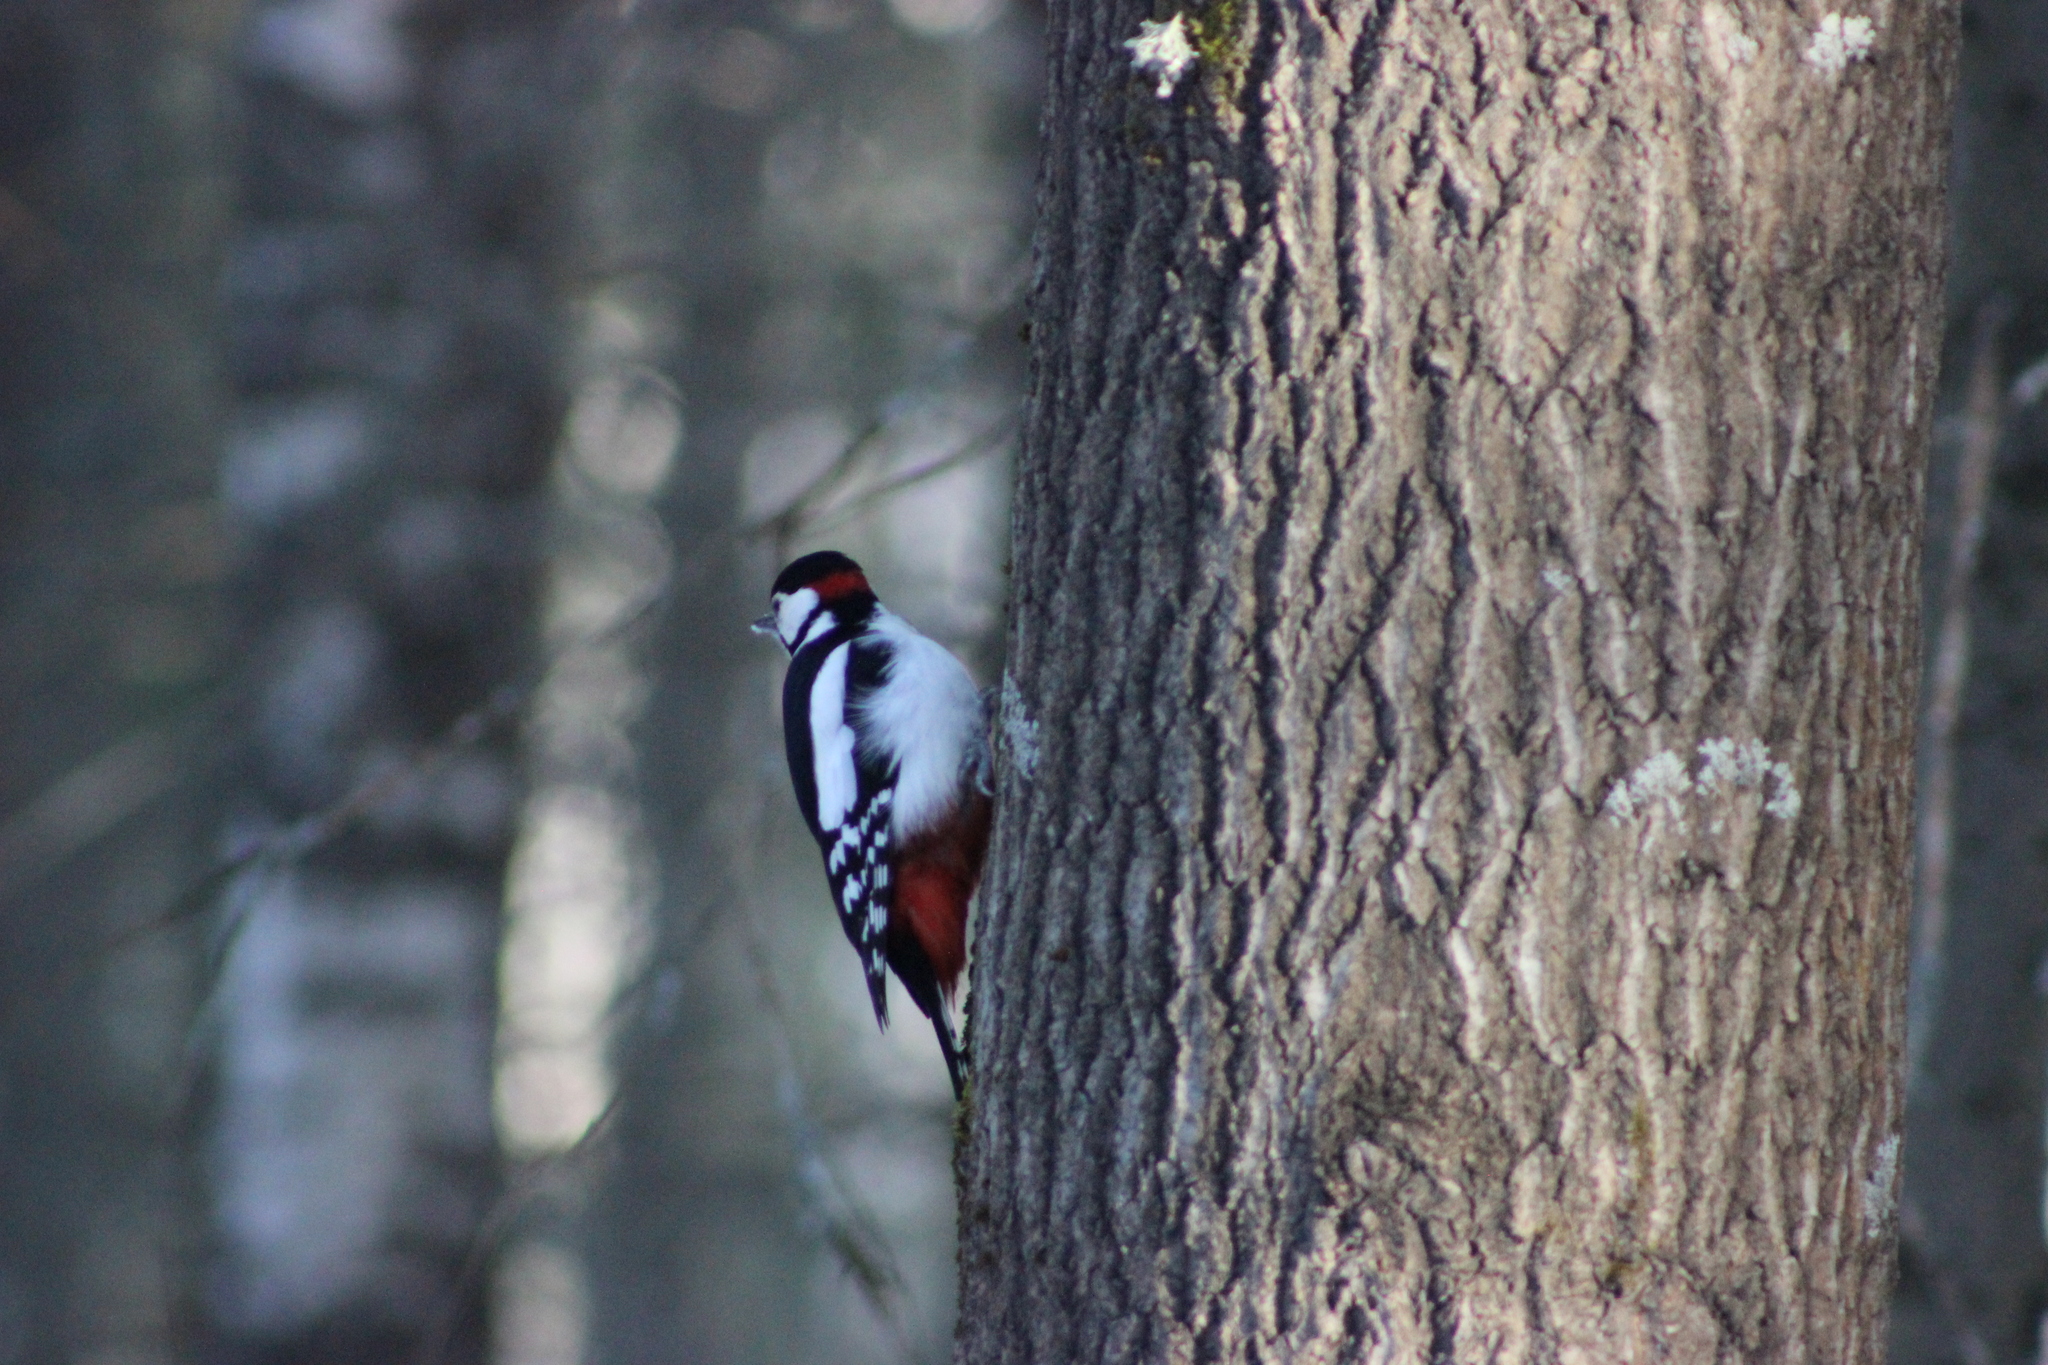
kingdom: Animalia
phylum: Chordata
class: Aves
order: Piciformes
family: Picidae
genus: Dendrocopos
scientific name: Dendrocopos major
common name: Great spotted woodpecker
